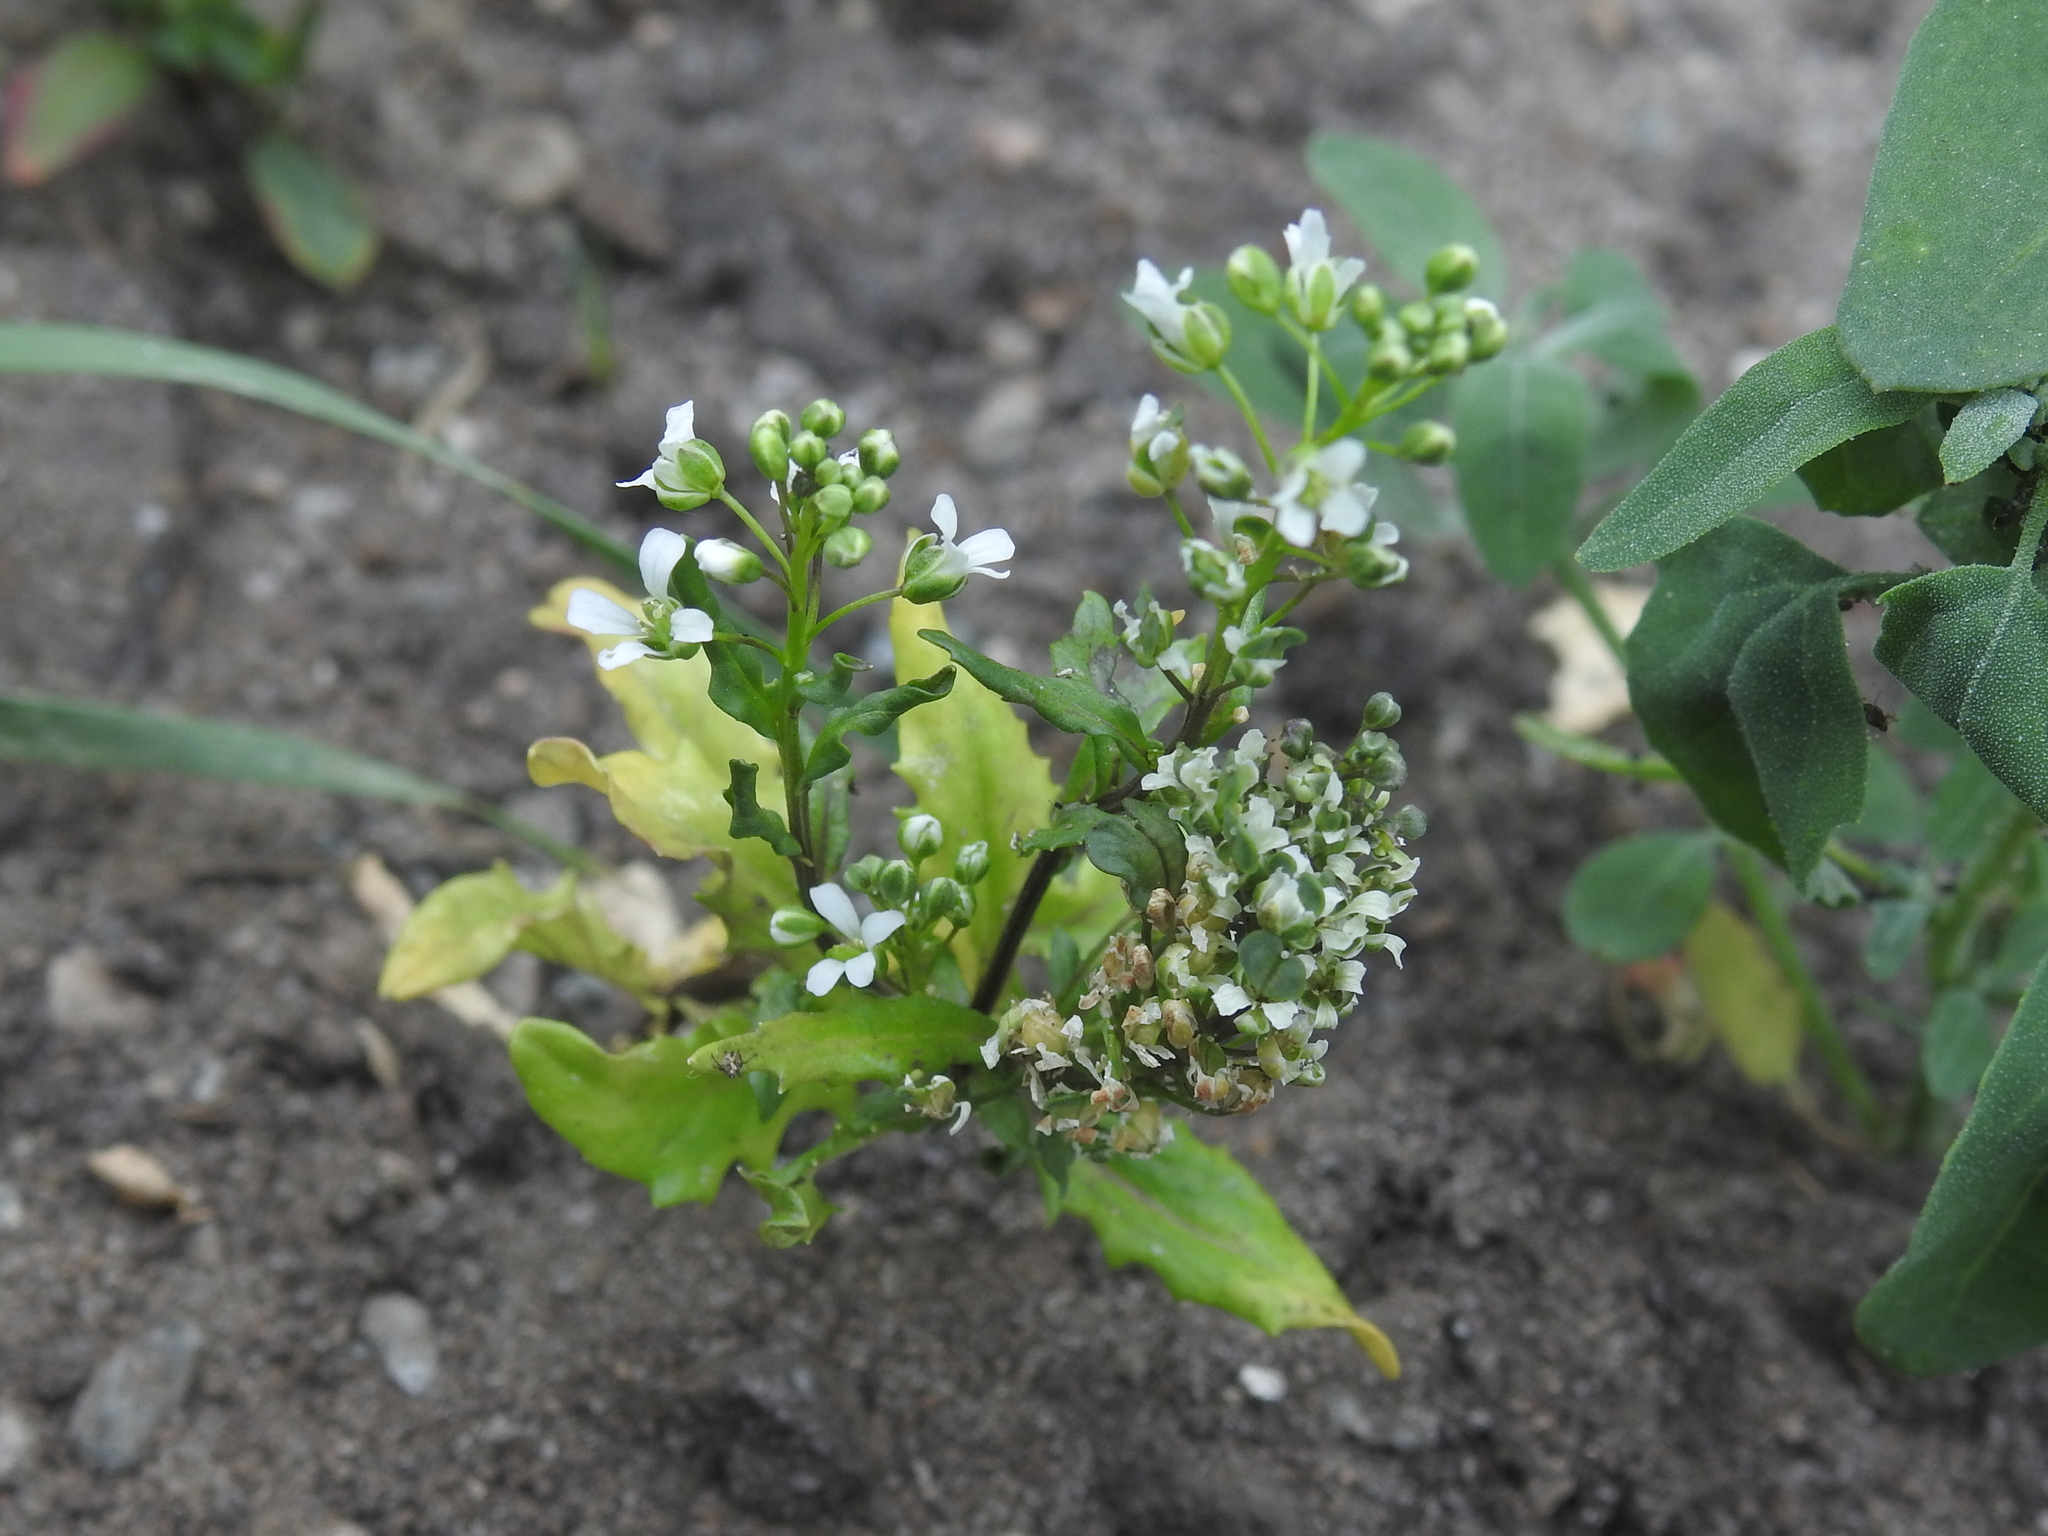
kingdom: Plantae
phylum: Tracheophyta
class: Magnoliopsida
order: Brassicales
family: Brassicaceae
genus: Thlaspi
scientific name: Thlaspi arvense
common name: Field pennycress
